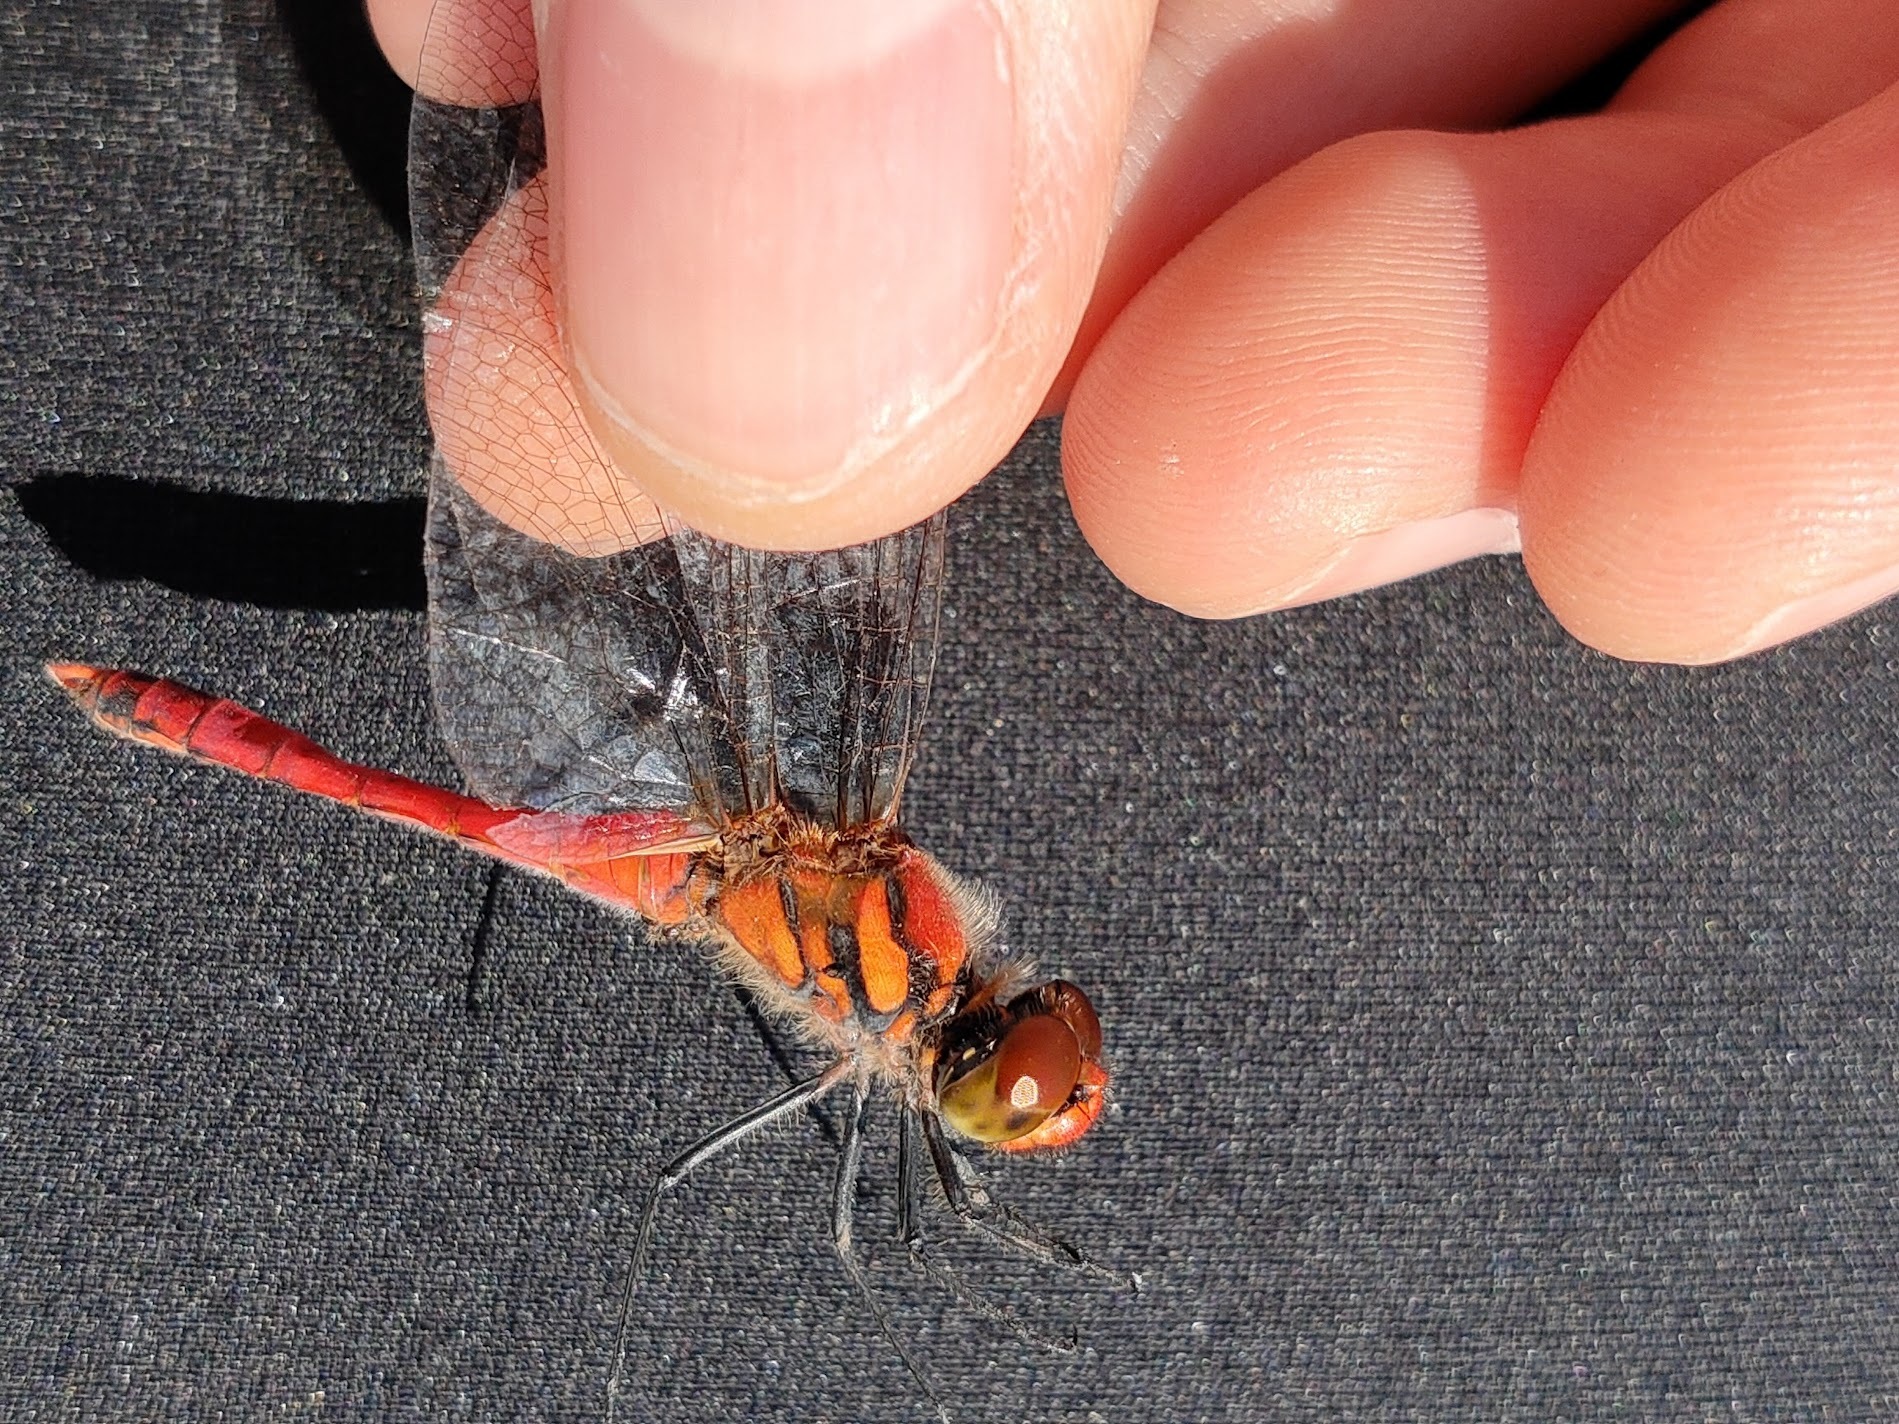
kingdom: Animalia
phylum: Arthropoda
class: Insecta
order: Odonata
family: Libellulidae
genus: Sympetrum
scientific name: Sympetrum darwinianum
